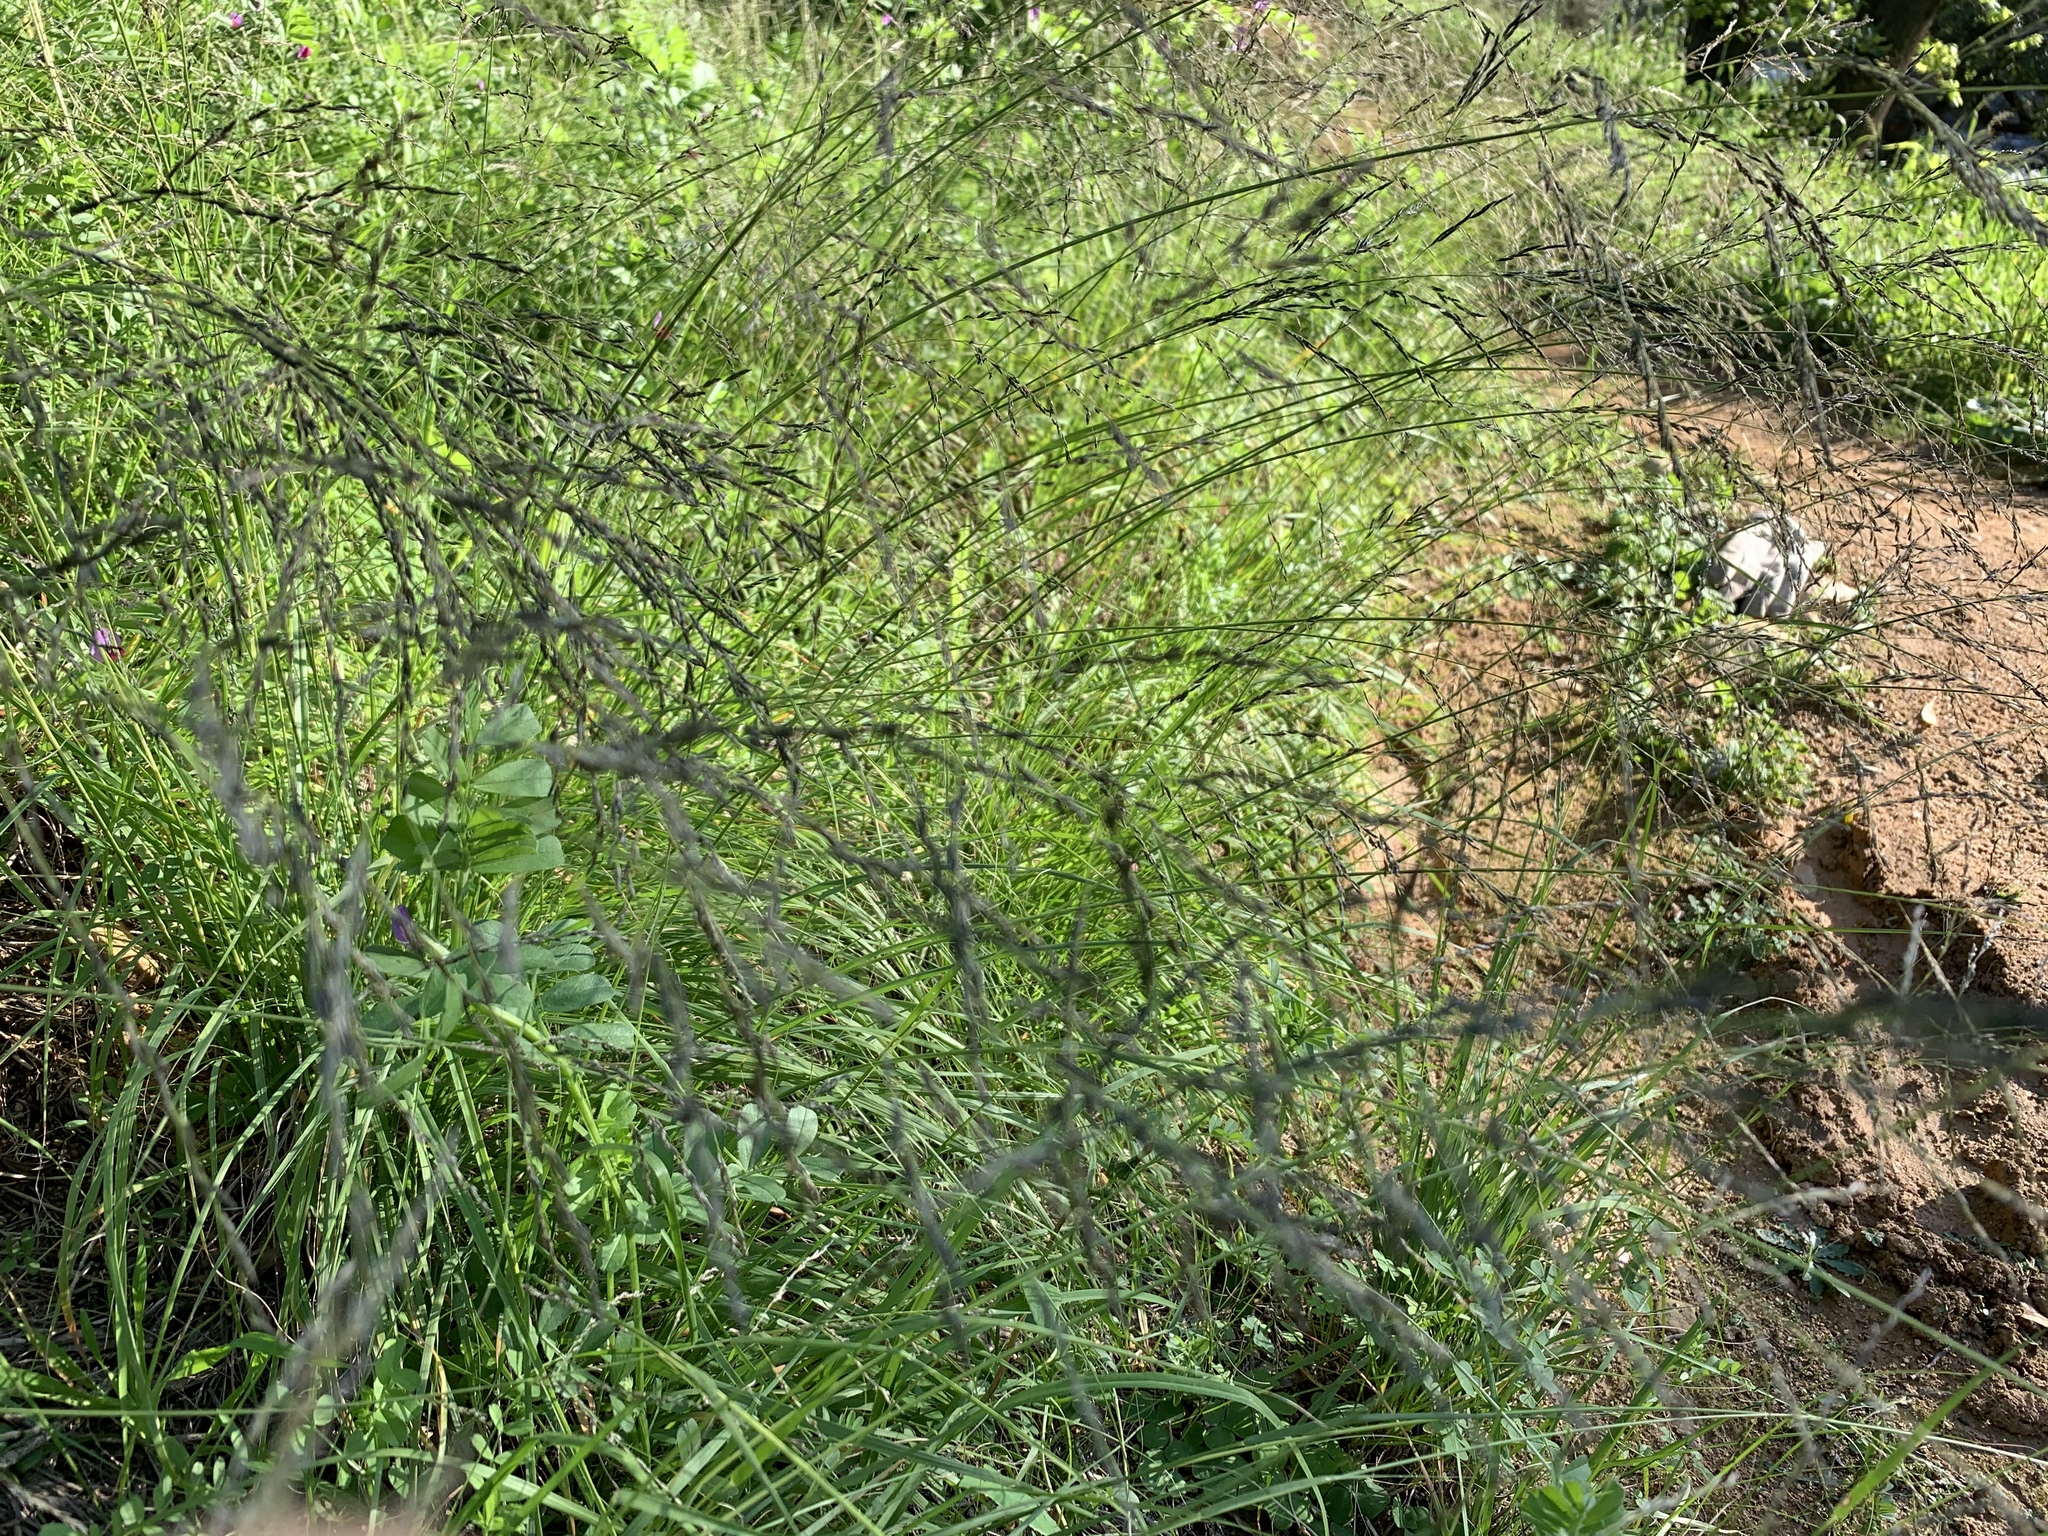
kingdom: Plantae
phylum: Tracheophyta
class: Liliopsida
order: Poales
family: Poaceae
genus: Eragrostis
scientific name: Eragrostis curvula
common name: African love-grass
